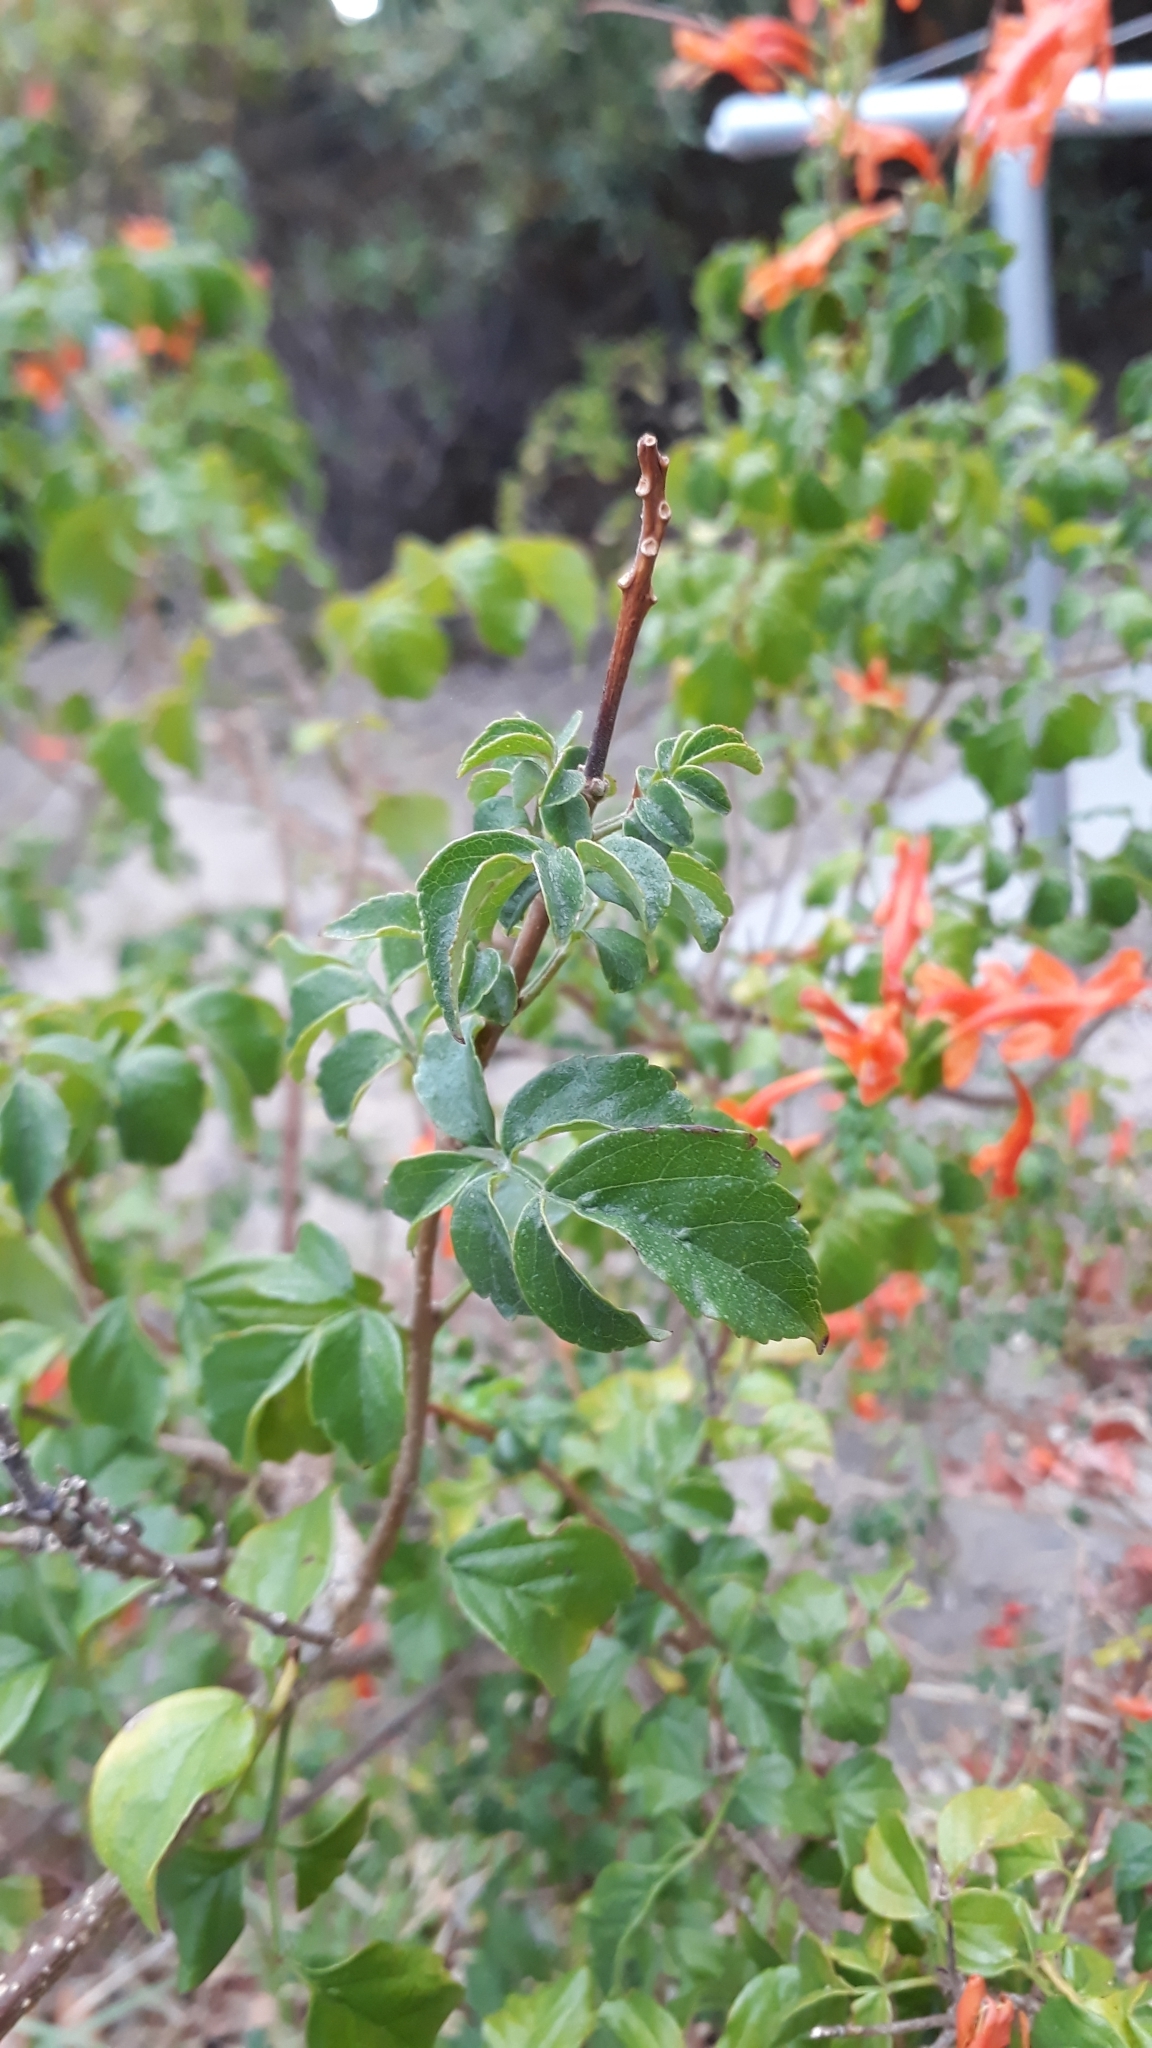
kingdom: Plantae
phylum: Tracheophyta
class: Magnoliopsida
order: Lamiales
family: Bignoniaceae
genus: Tecomaria
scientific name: Tecomaria capensis
